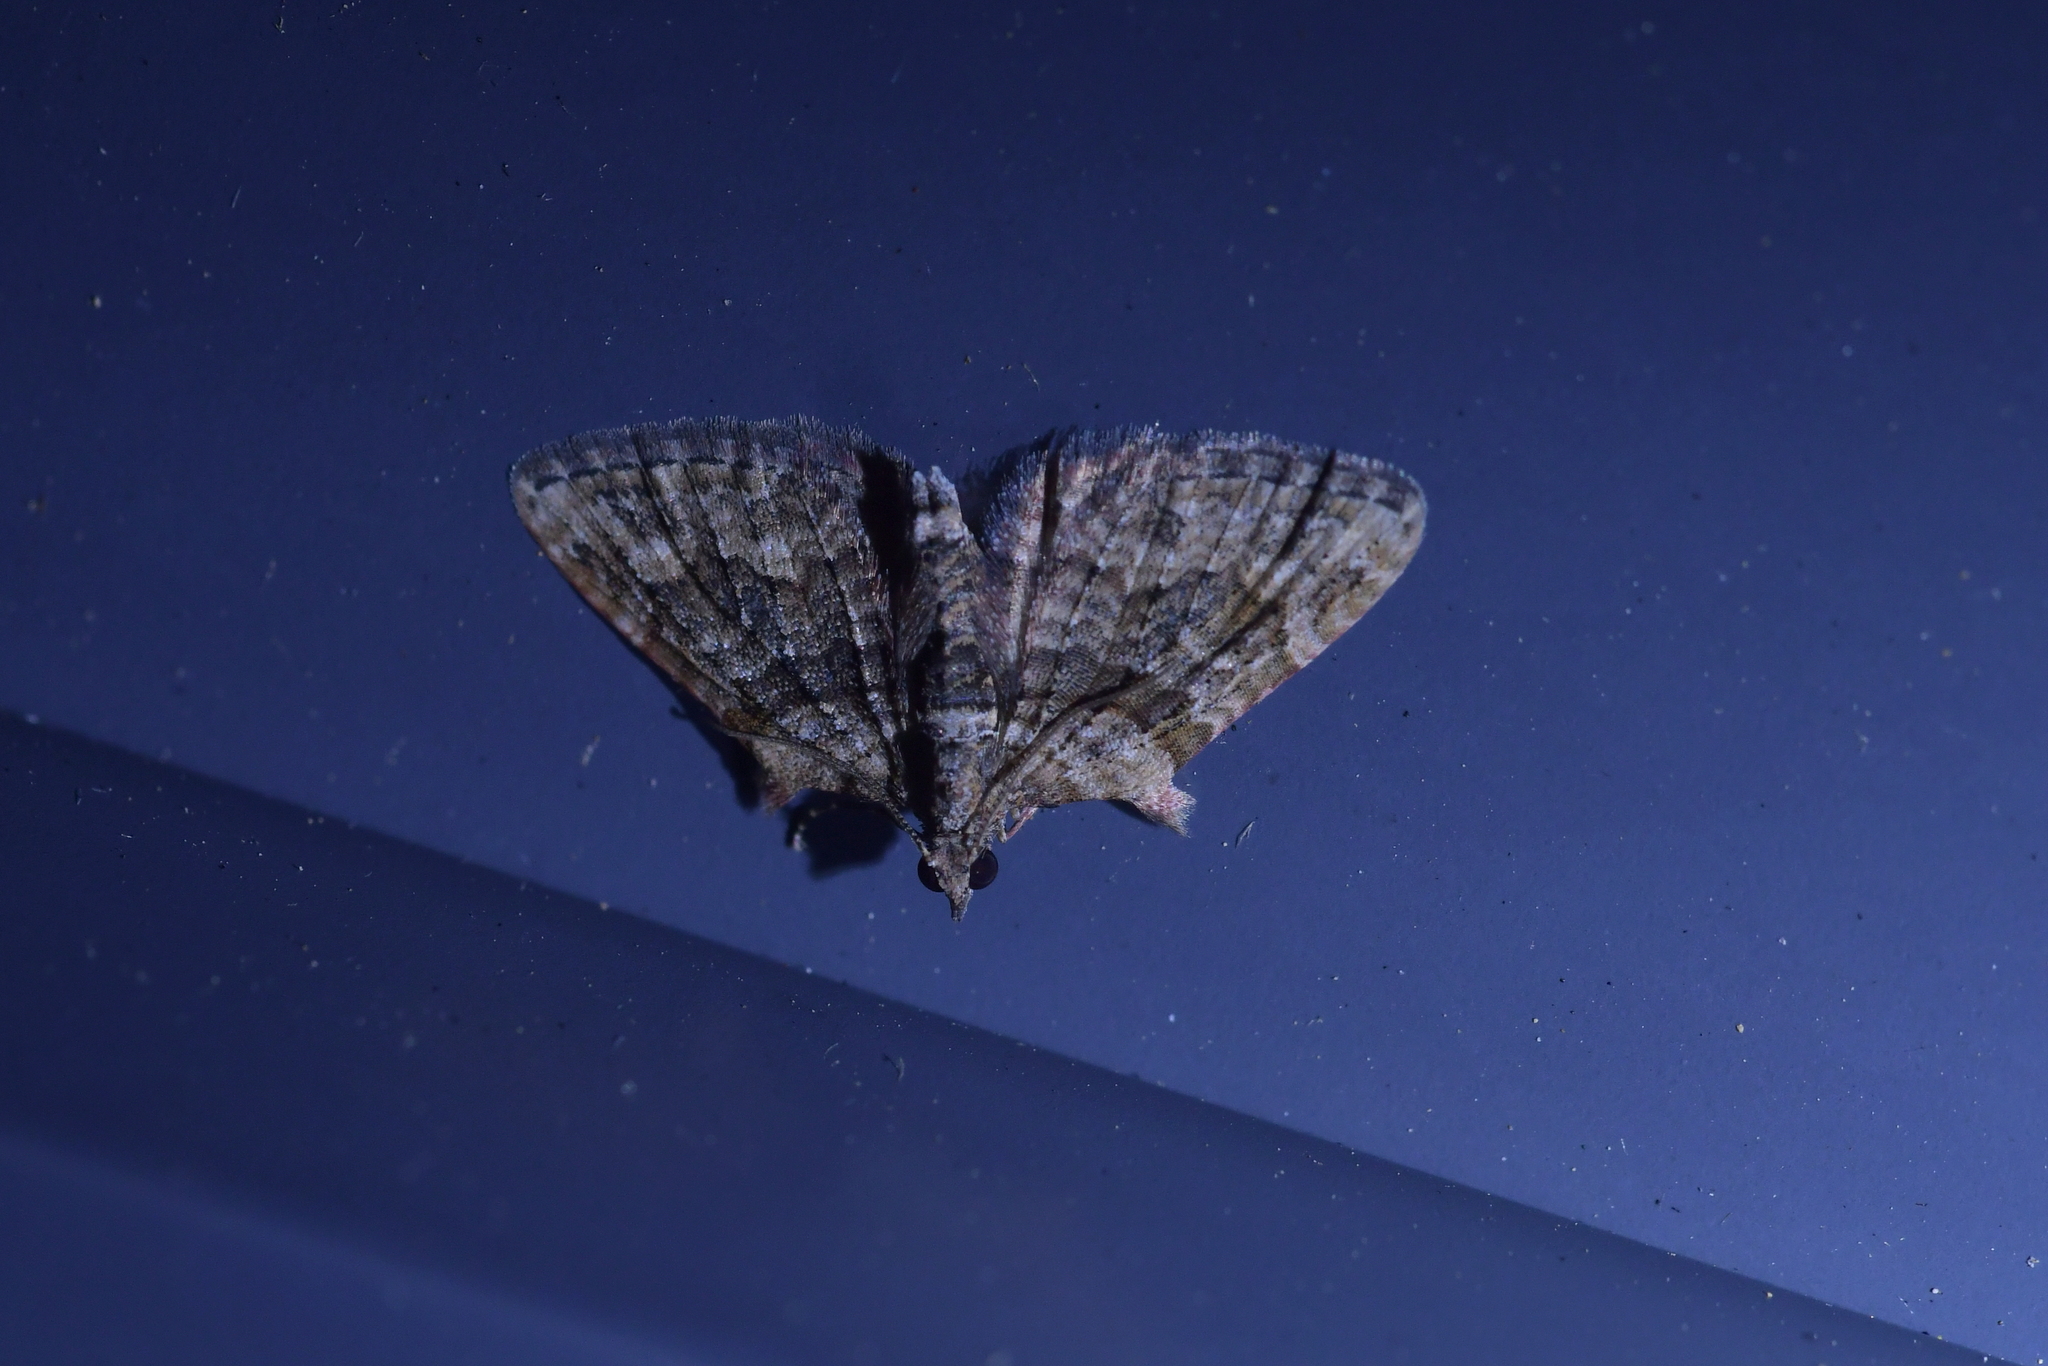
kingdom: Animalia
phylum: Arthropoda
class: Insecta
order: Lepidoptera
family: Geometridae
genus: Phrissogonus
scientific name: Phrissogonus laticostata
